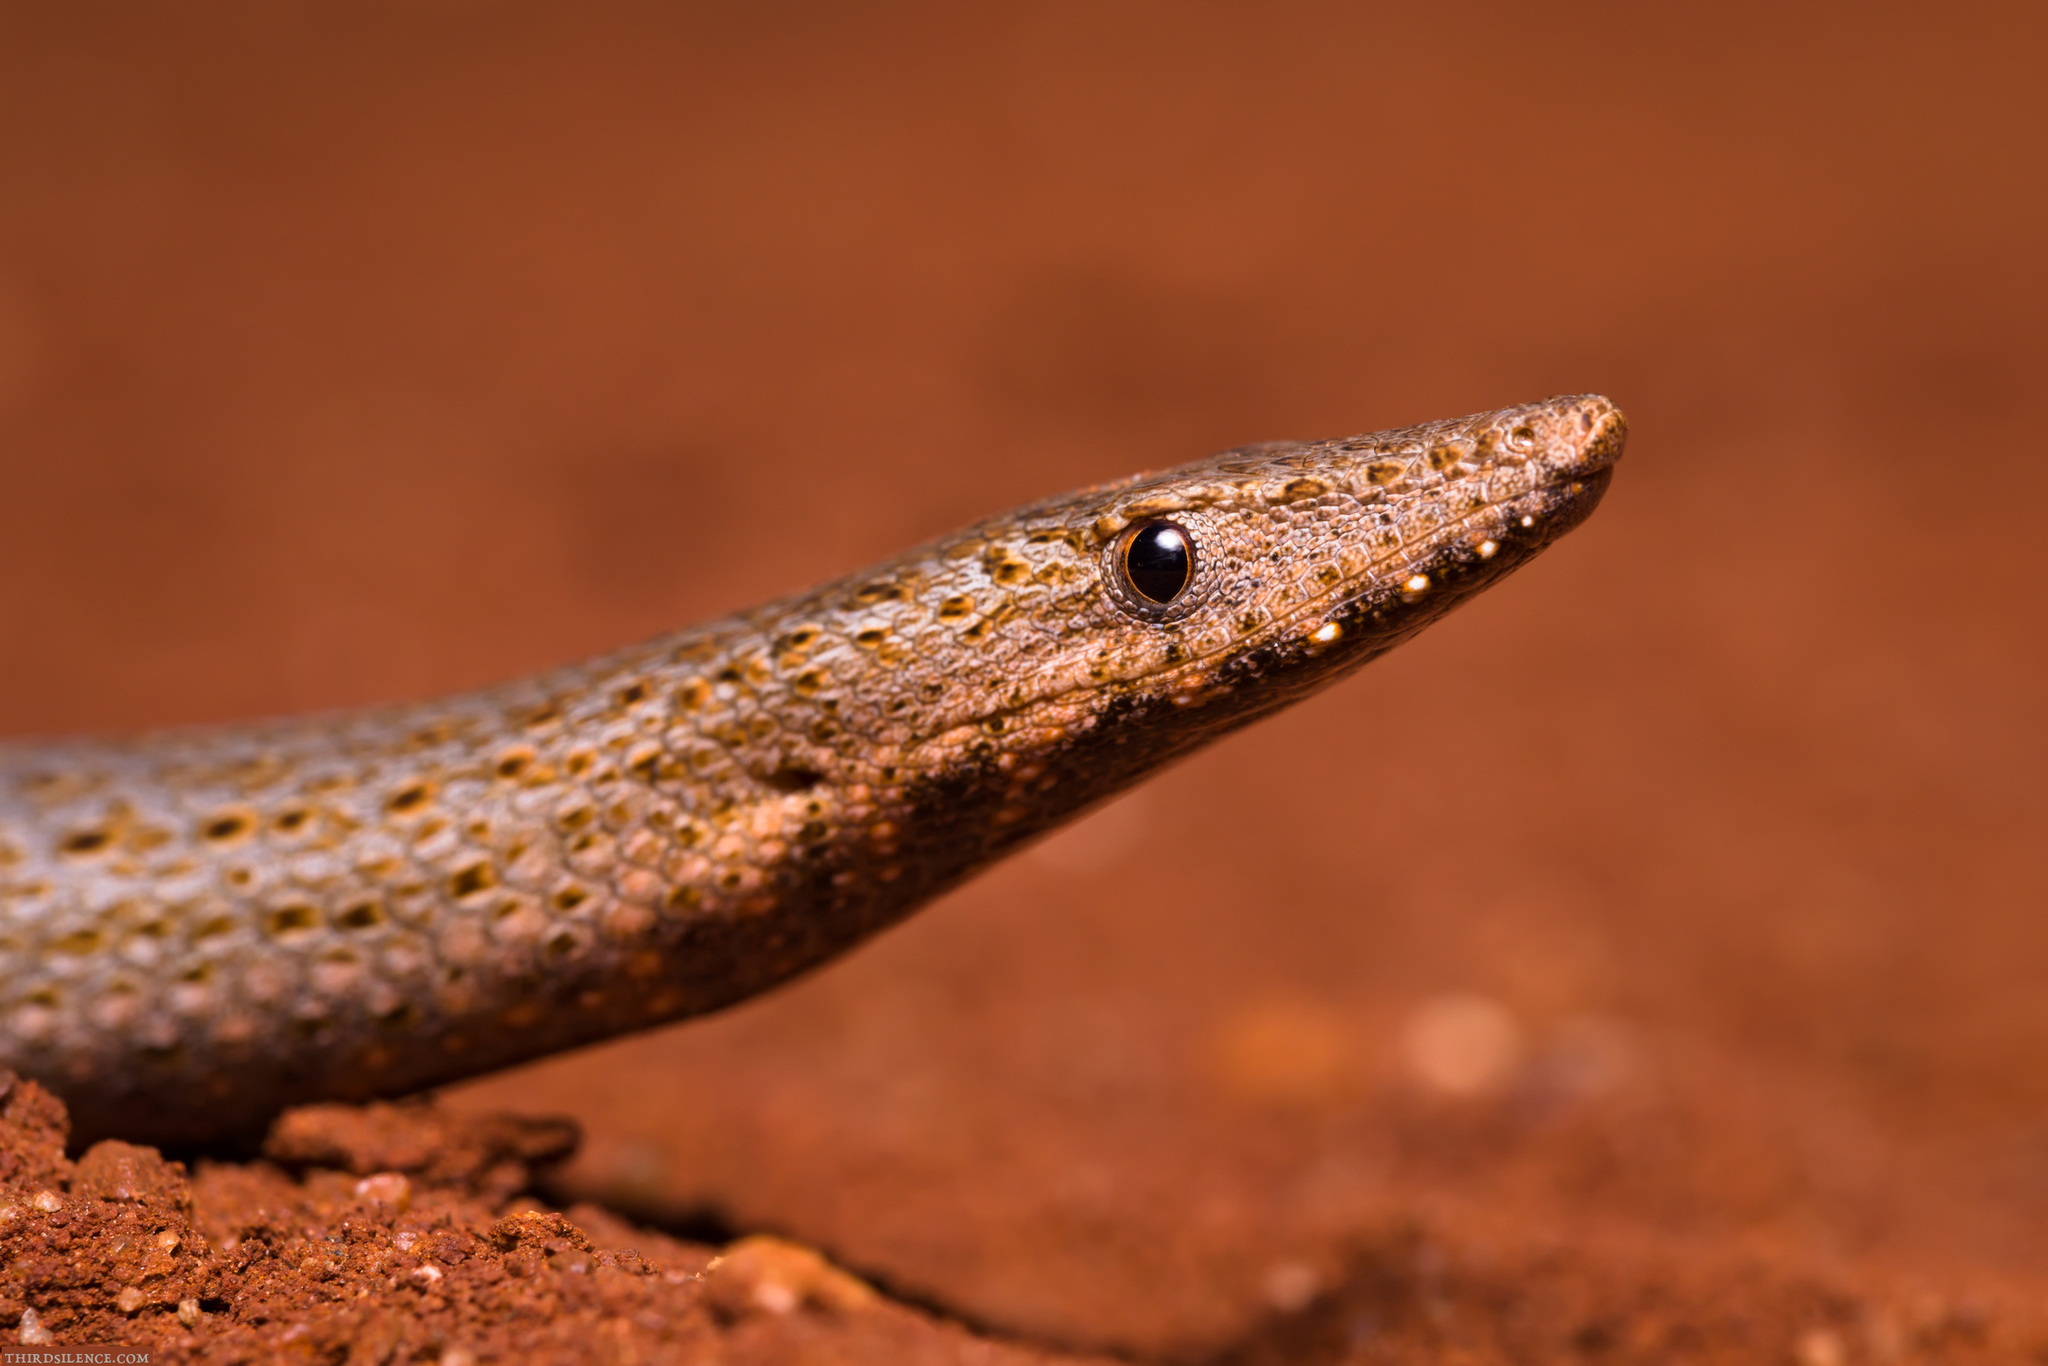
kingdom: Animalia
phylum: Chordata
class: Squamata
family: Pygopodidae
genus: Lialis
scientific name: Lialis burtonis
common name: Burton's legless lizard
